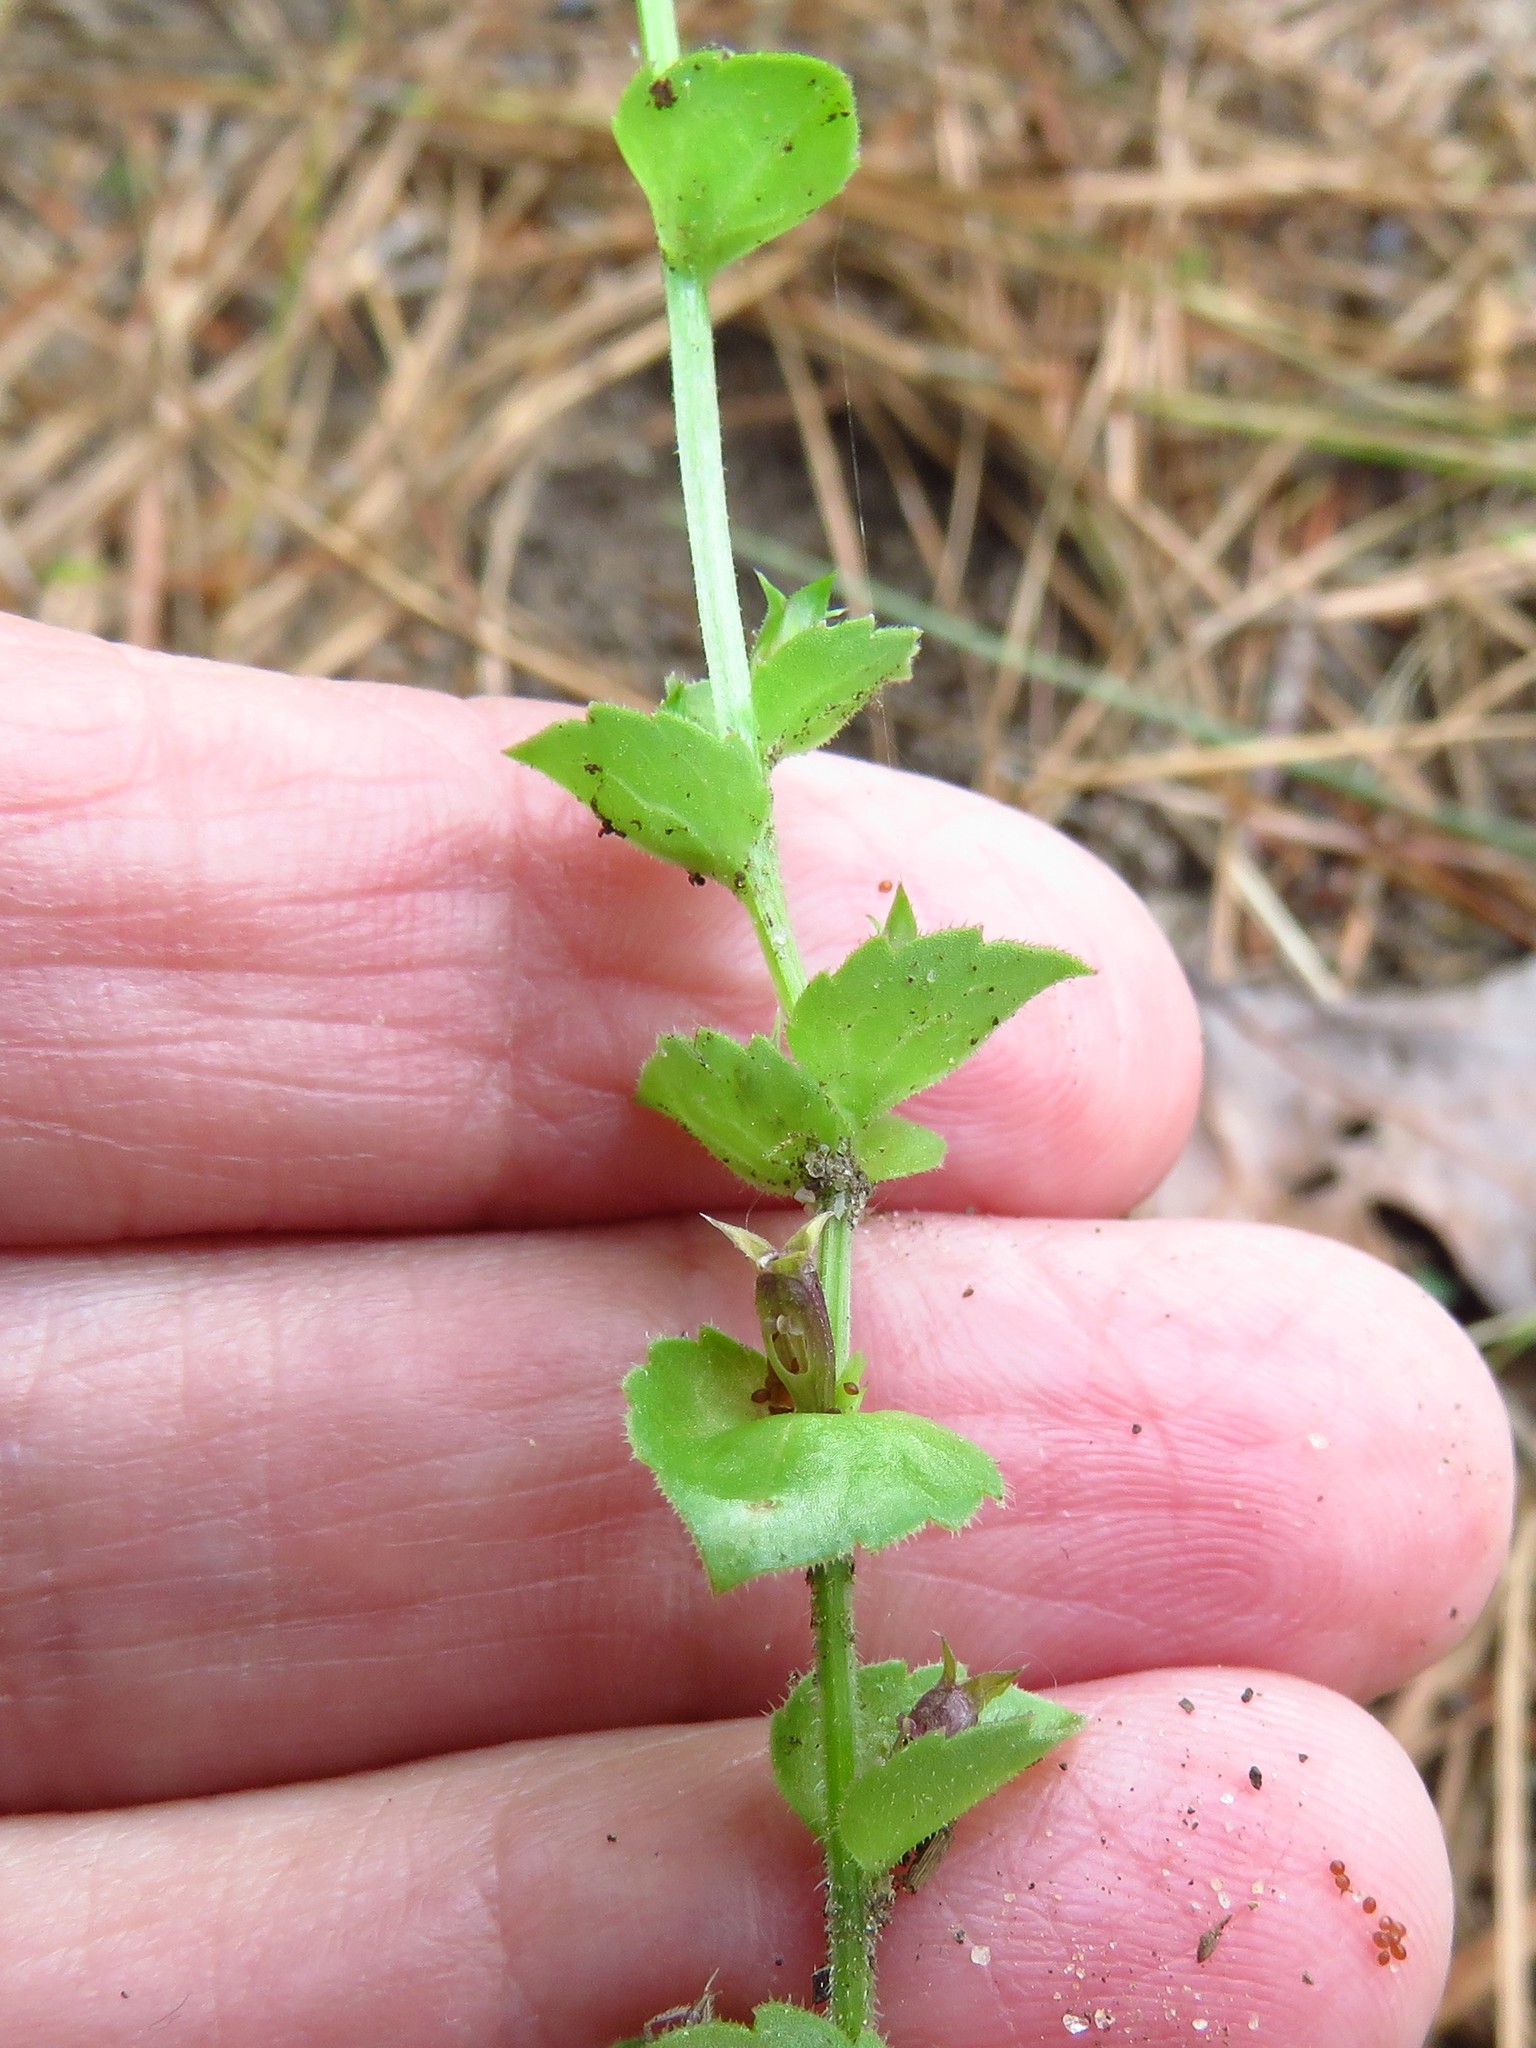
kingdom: Plantae
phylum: Tracheophyta
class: Magnoliopsida
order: Asterales
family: Campanulaceae
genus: Triodanis
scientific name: Triodanis perfoliata
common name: Clasping venus' looking-glass
